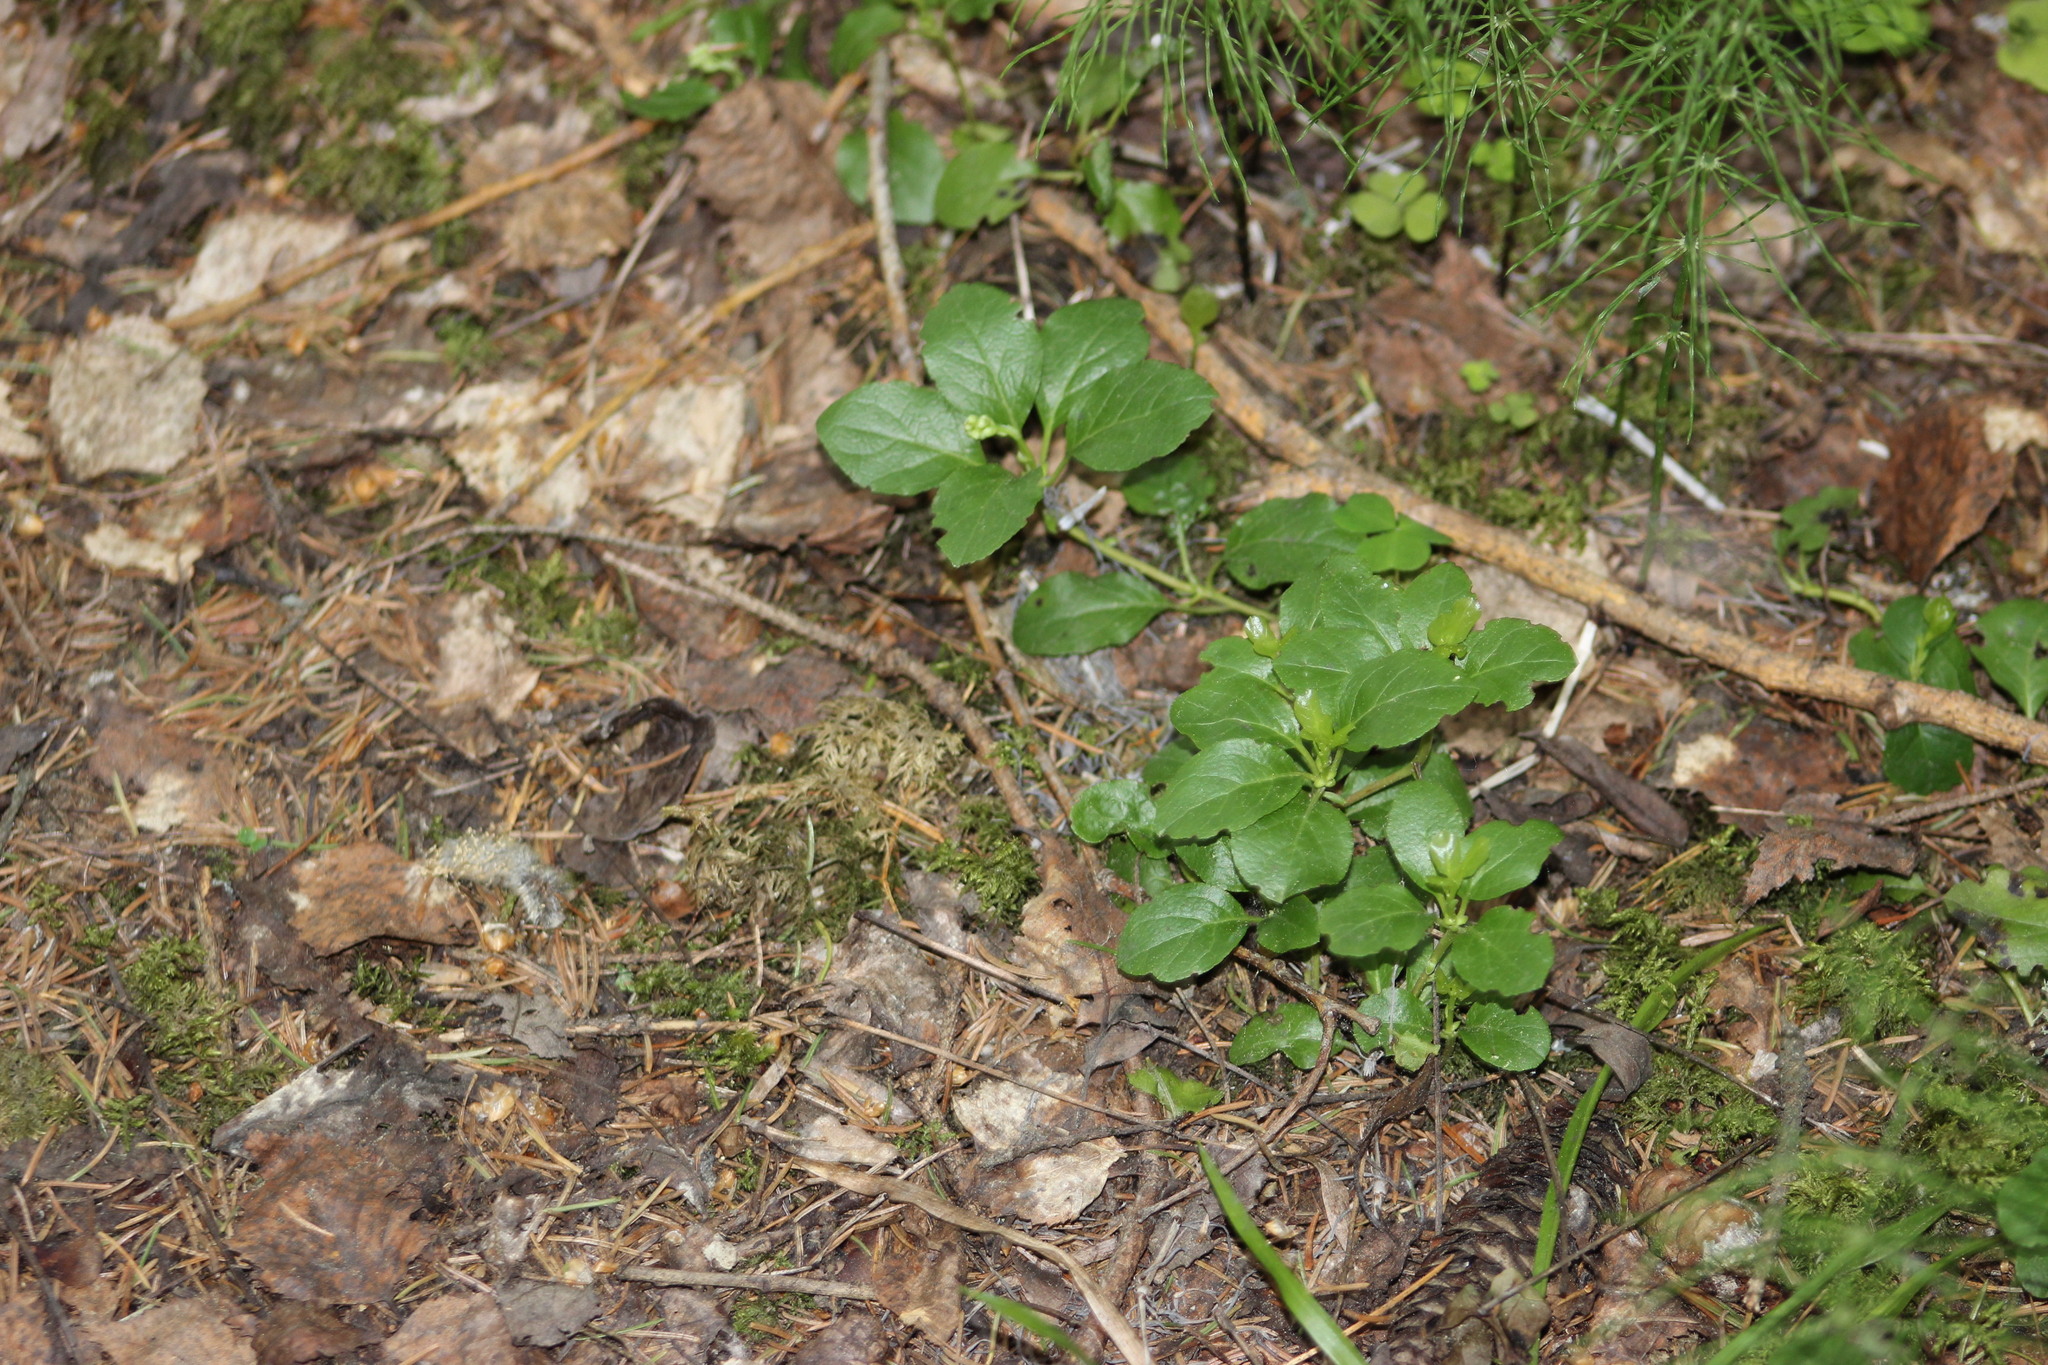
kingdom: Plantae
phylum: Tracheophyta
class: Magnoliopsida
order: Ericales
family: Ericaceae
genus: Orthilia
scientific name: Orthilia secunda
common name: One-sided orthilia
